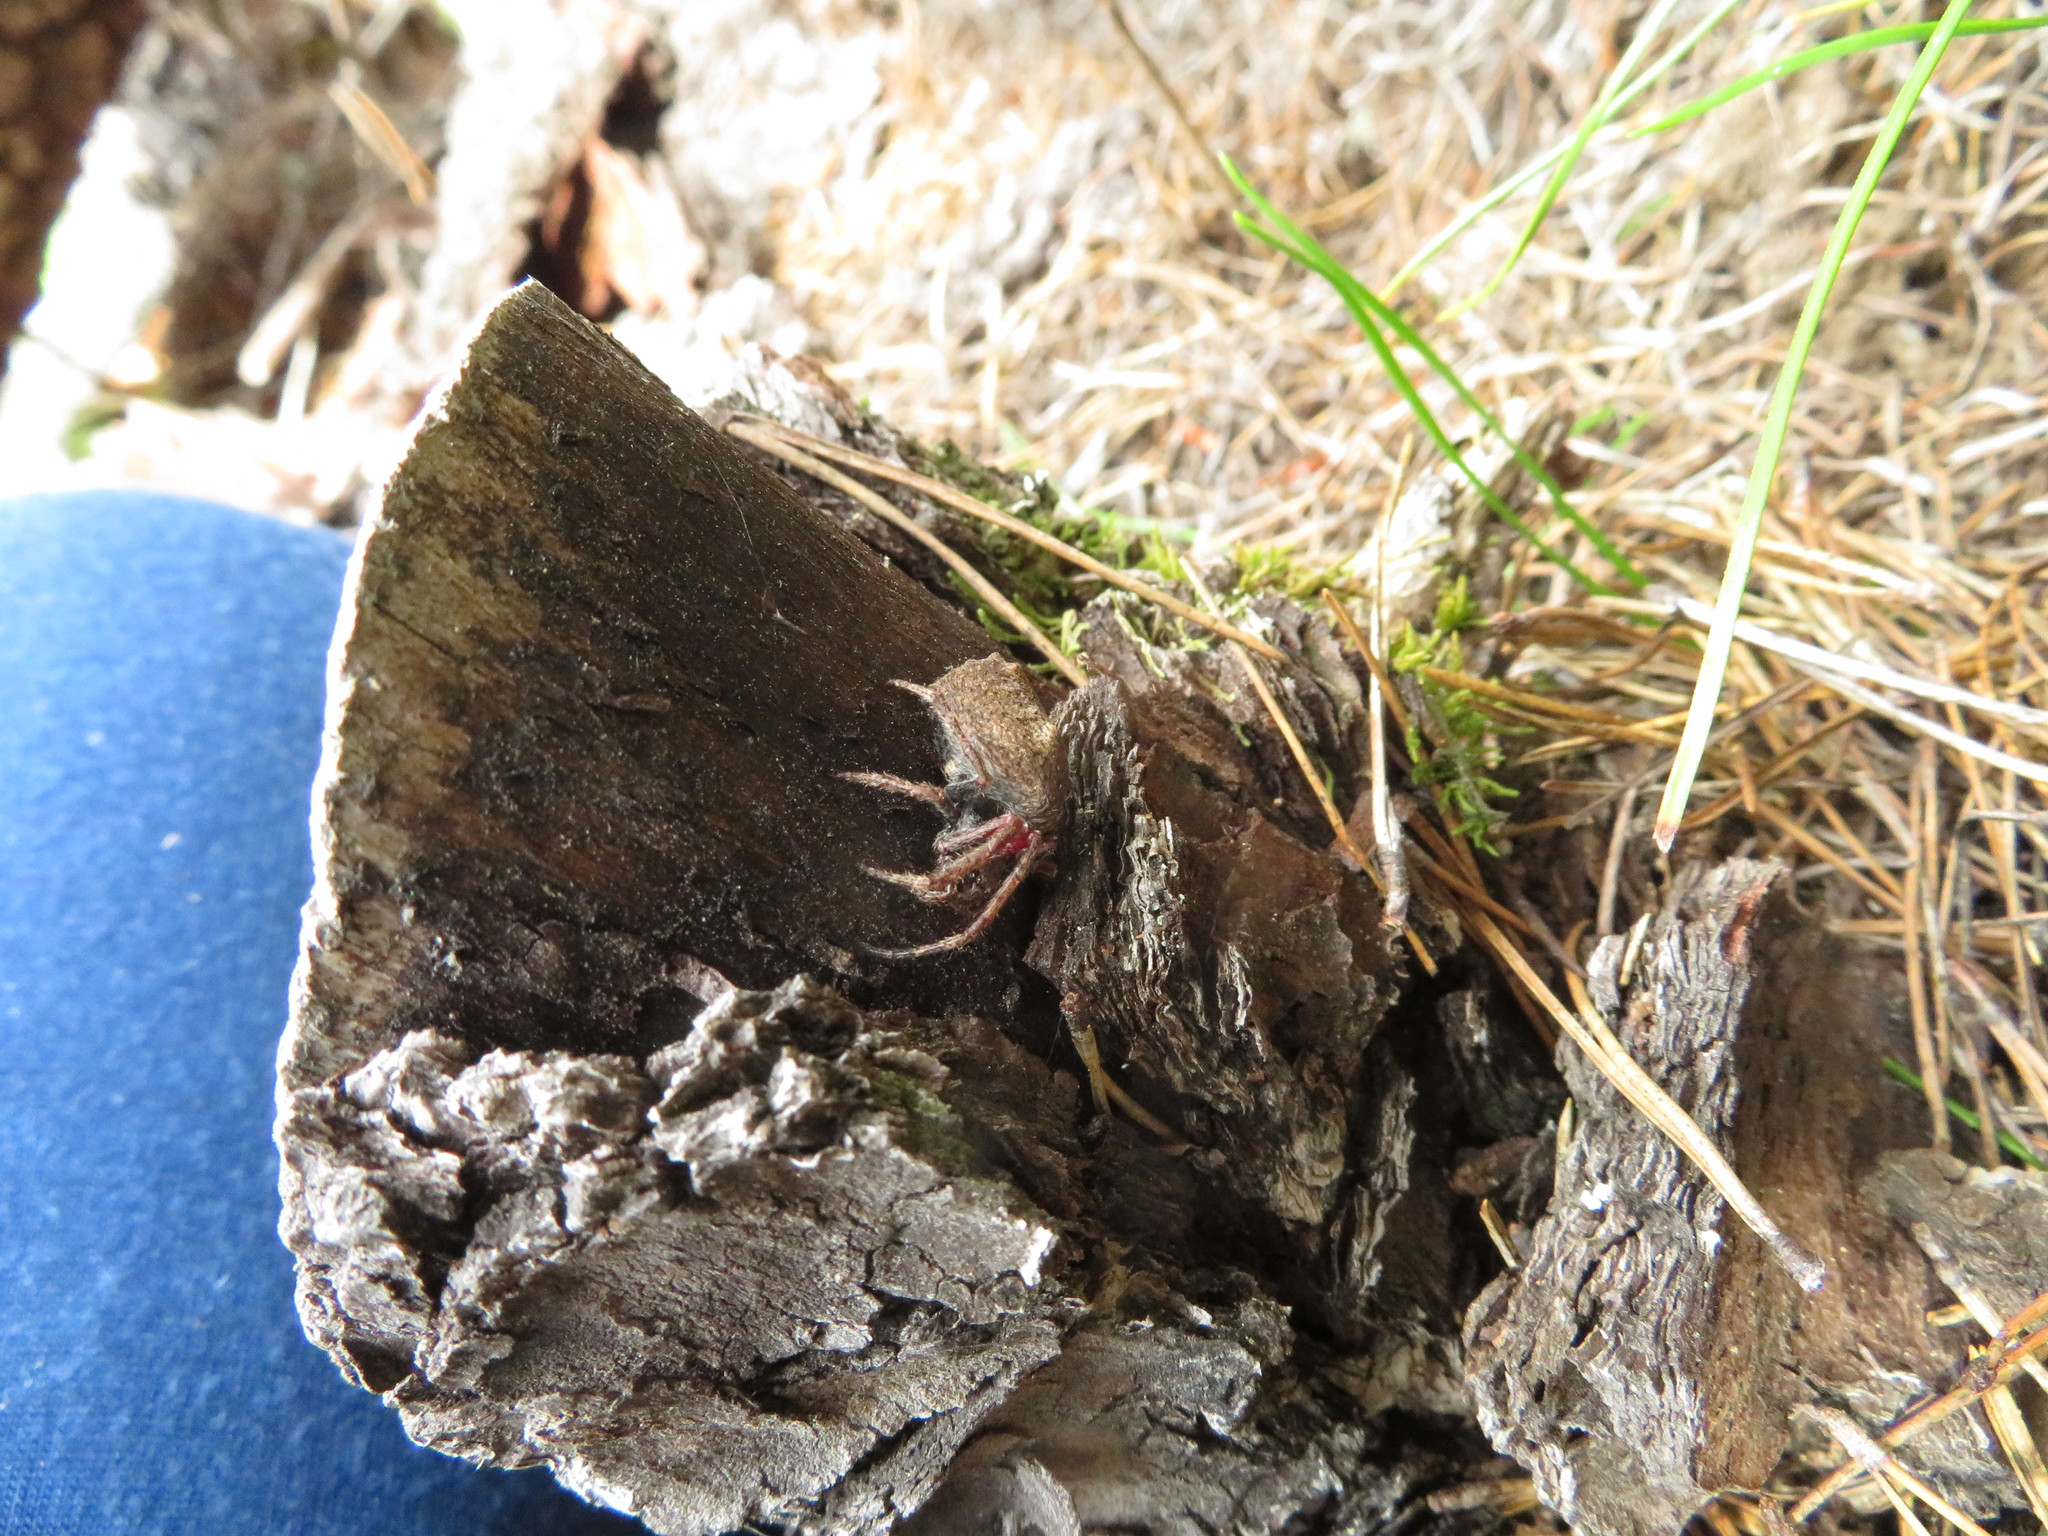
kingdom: Animalia
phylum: Arthropoda
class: Arachnida
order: Araneae
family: Araneidae
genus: Eriophora
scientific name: Eriophora pustulosa
